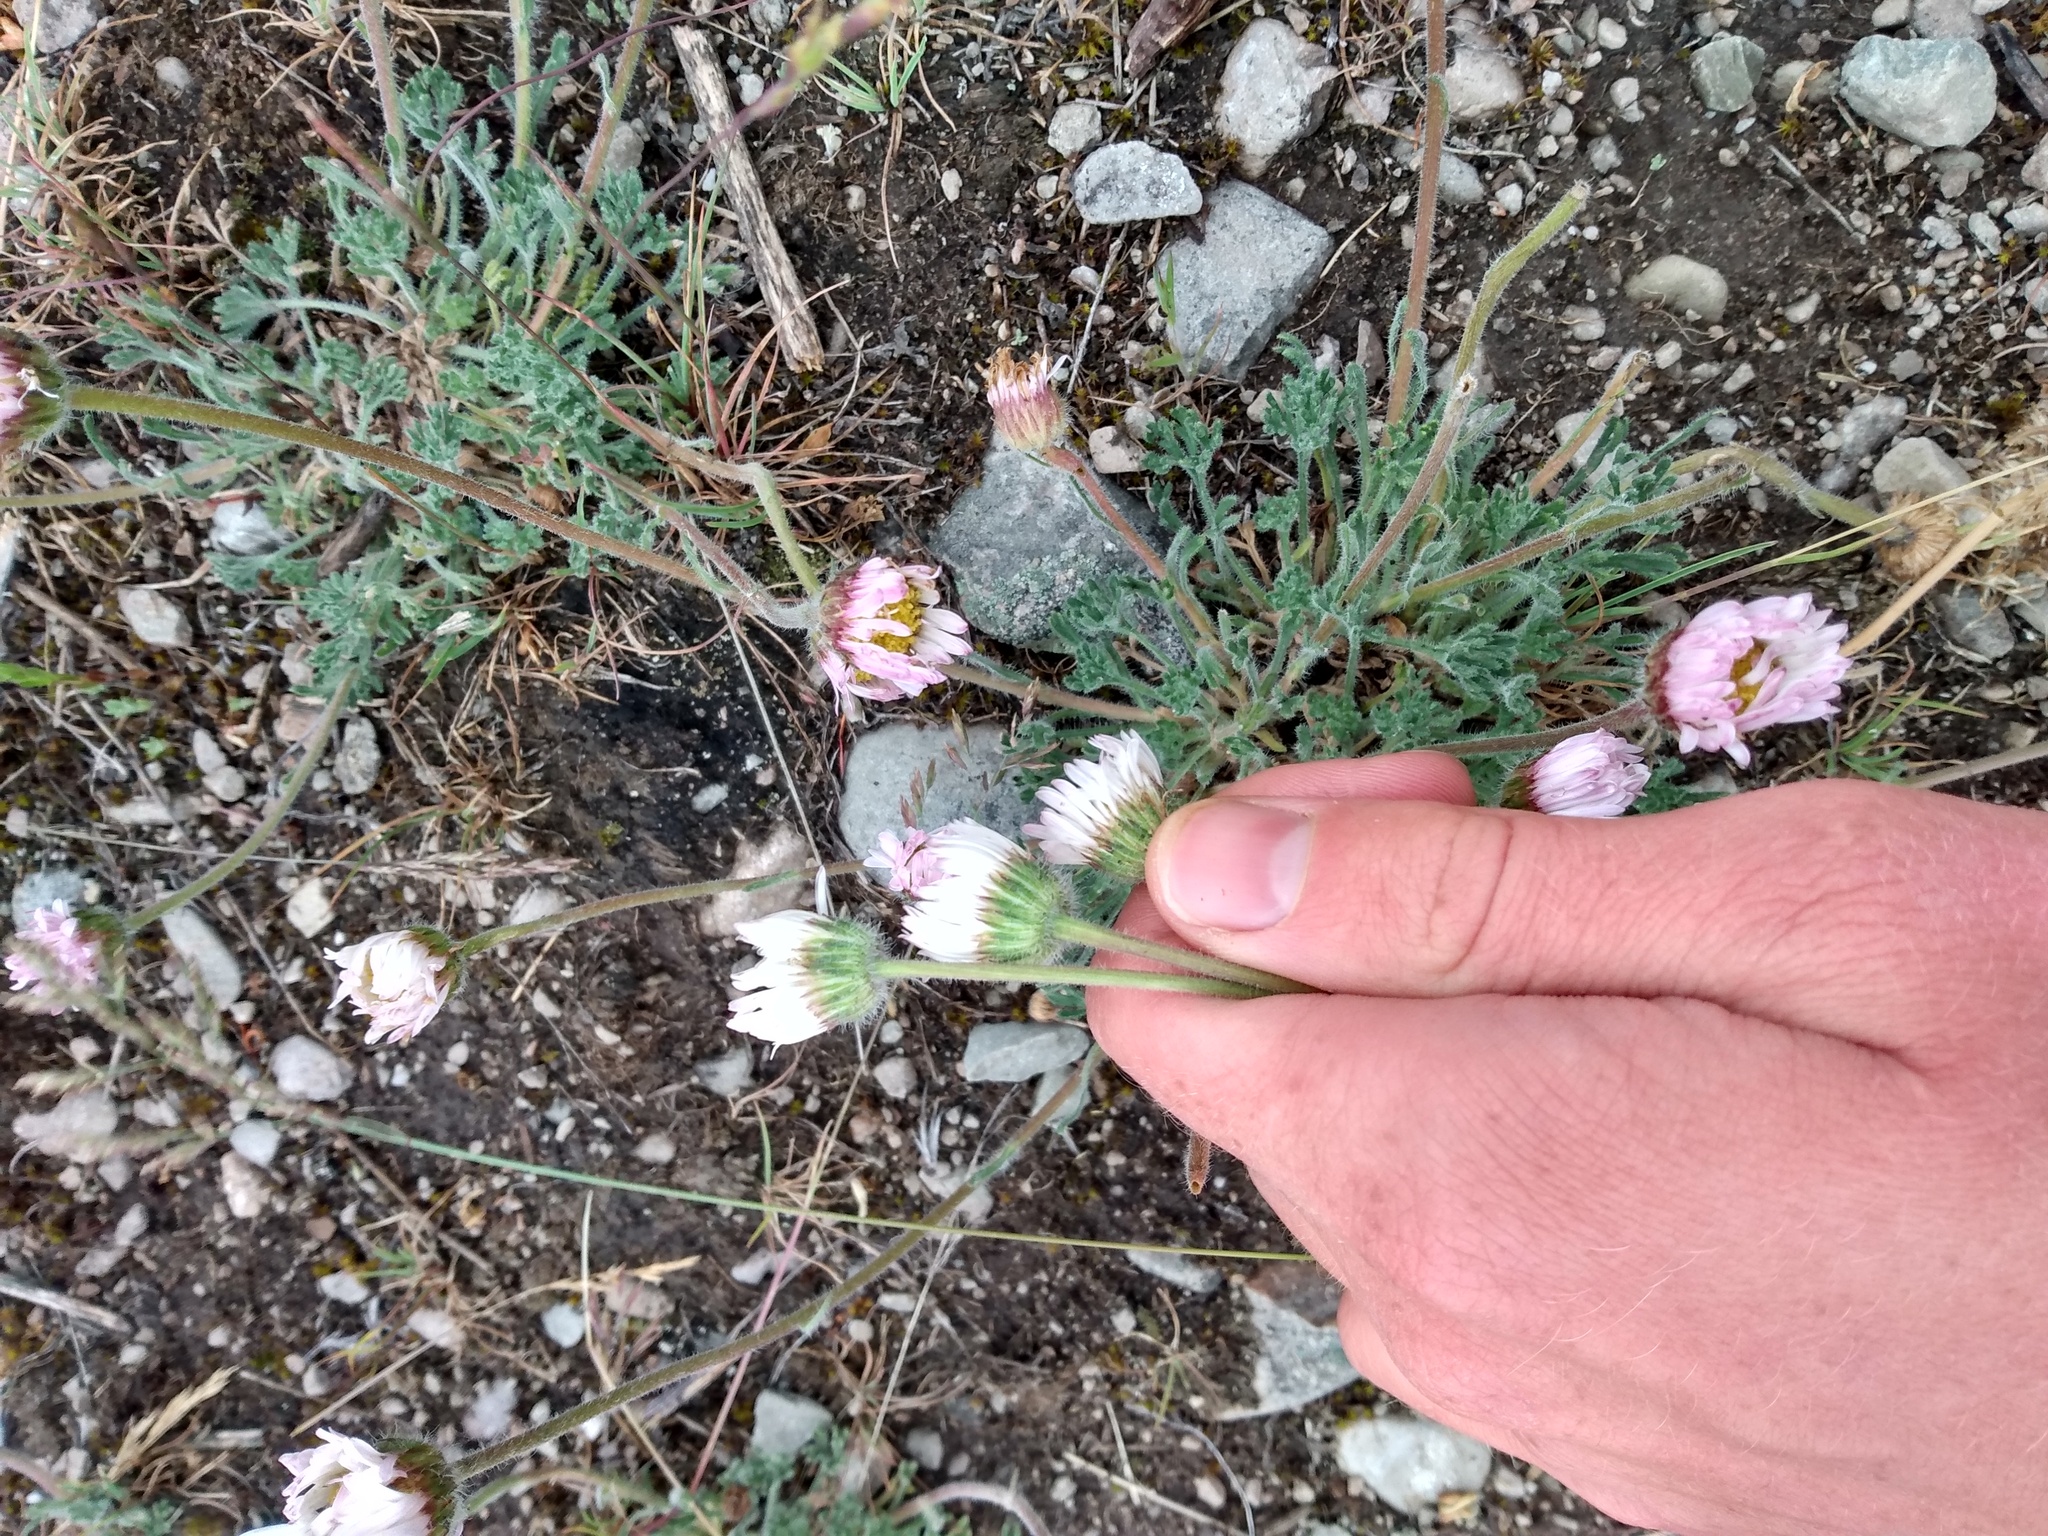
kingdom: Plantae
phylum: Tracheophyta
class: Magnoliopsida
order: Asterales
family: Asteraceae
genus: Erigeron
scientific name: Erigeron compositus
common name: Dwarf mountain fleabane
